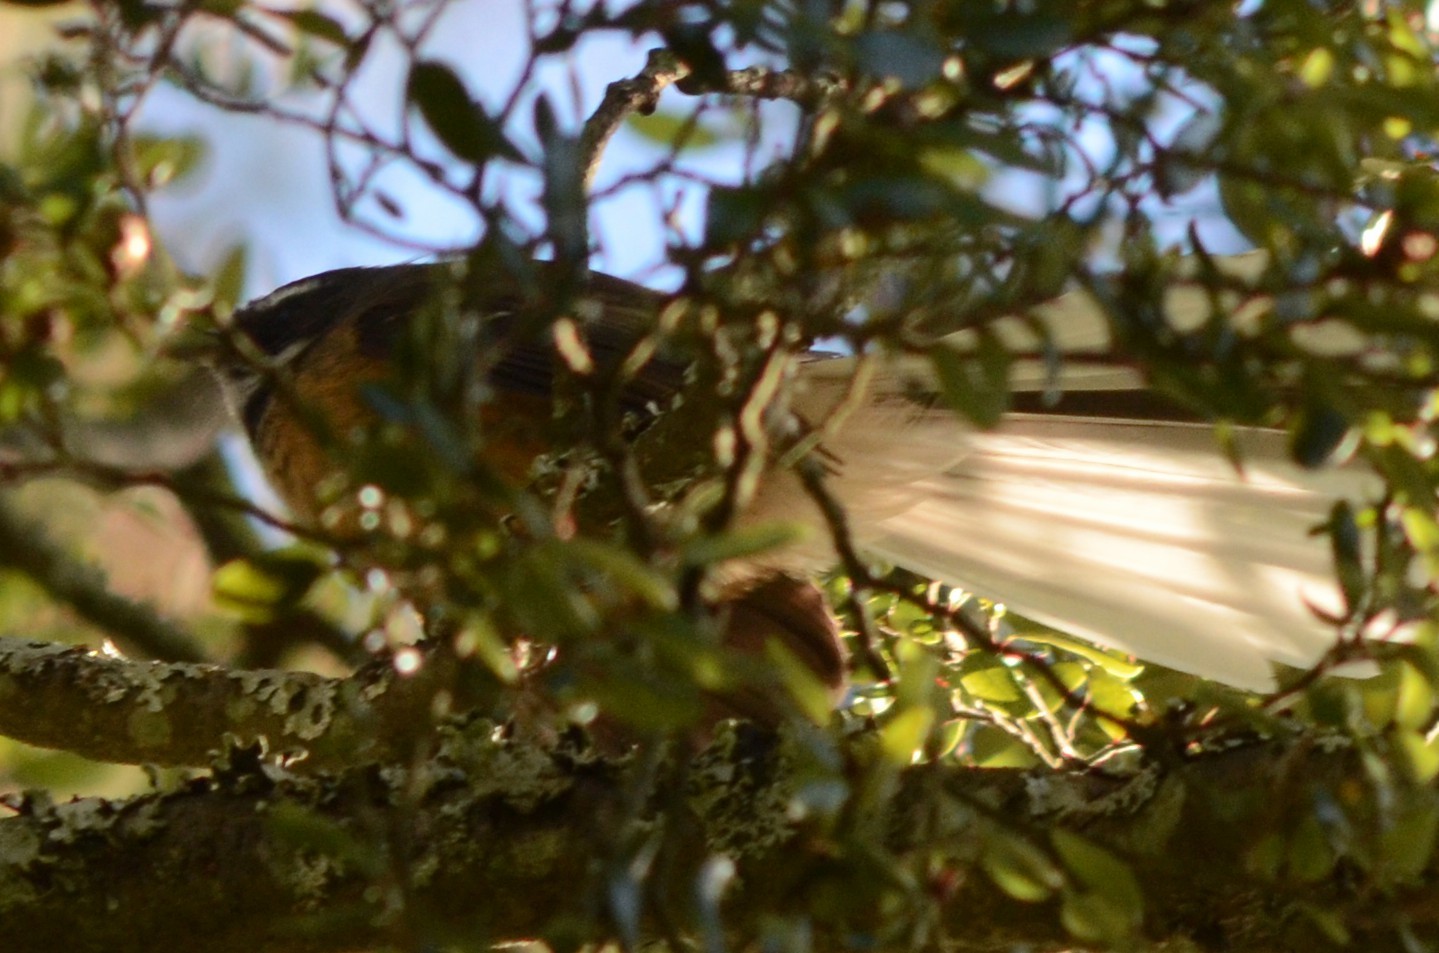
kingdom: Animalia
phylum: Chordata
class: Aves
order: Passeriformes
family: Rhipiduridae
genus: Rhipidura
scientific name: Rhipidura fuliginosa
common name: New zealand fantail
